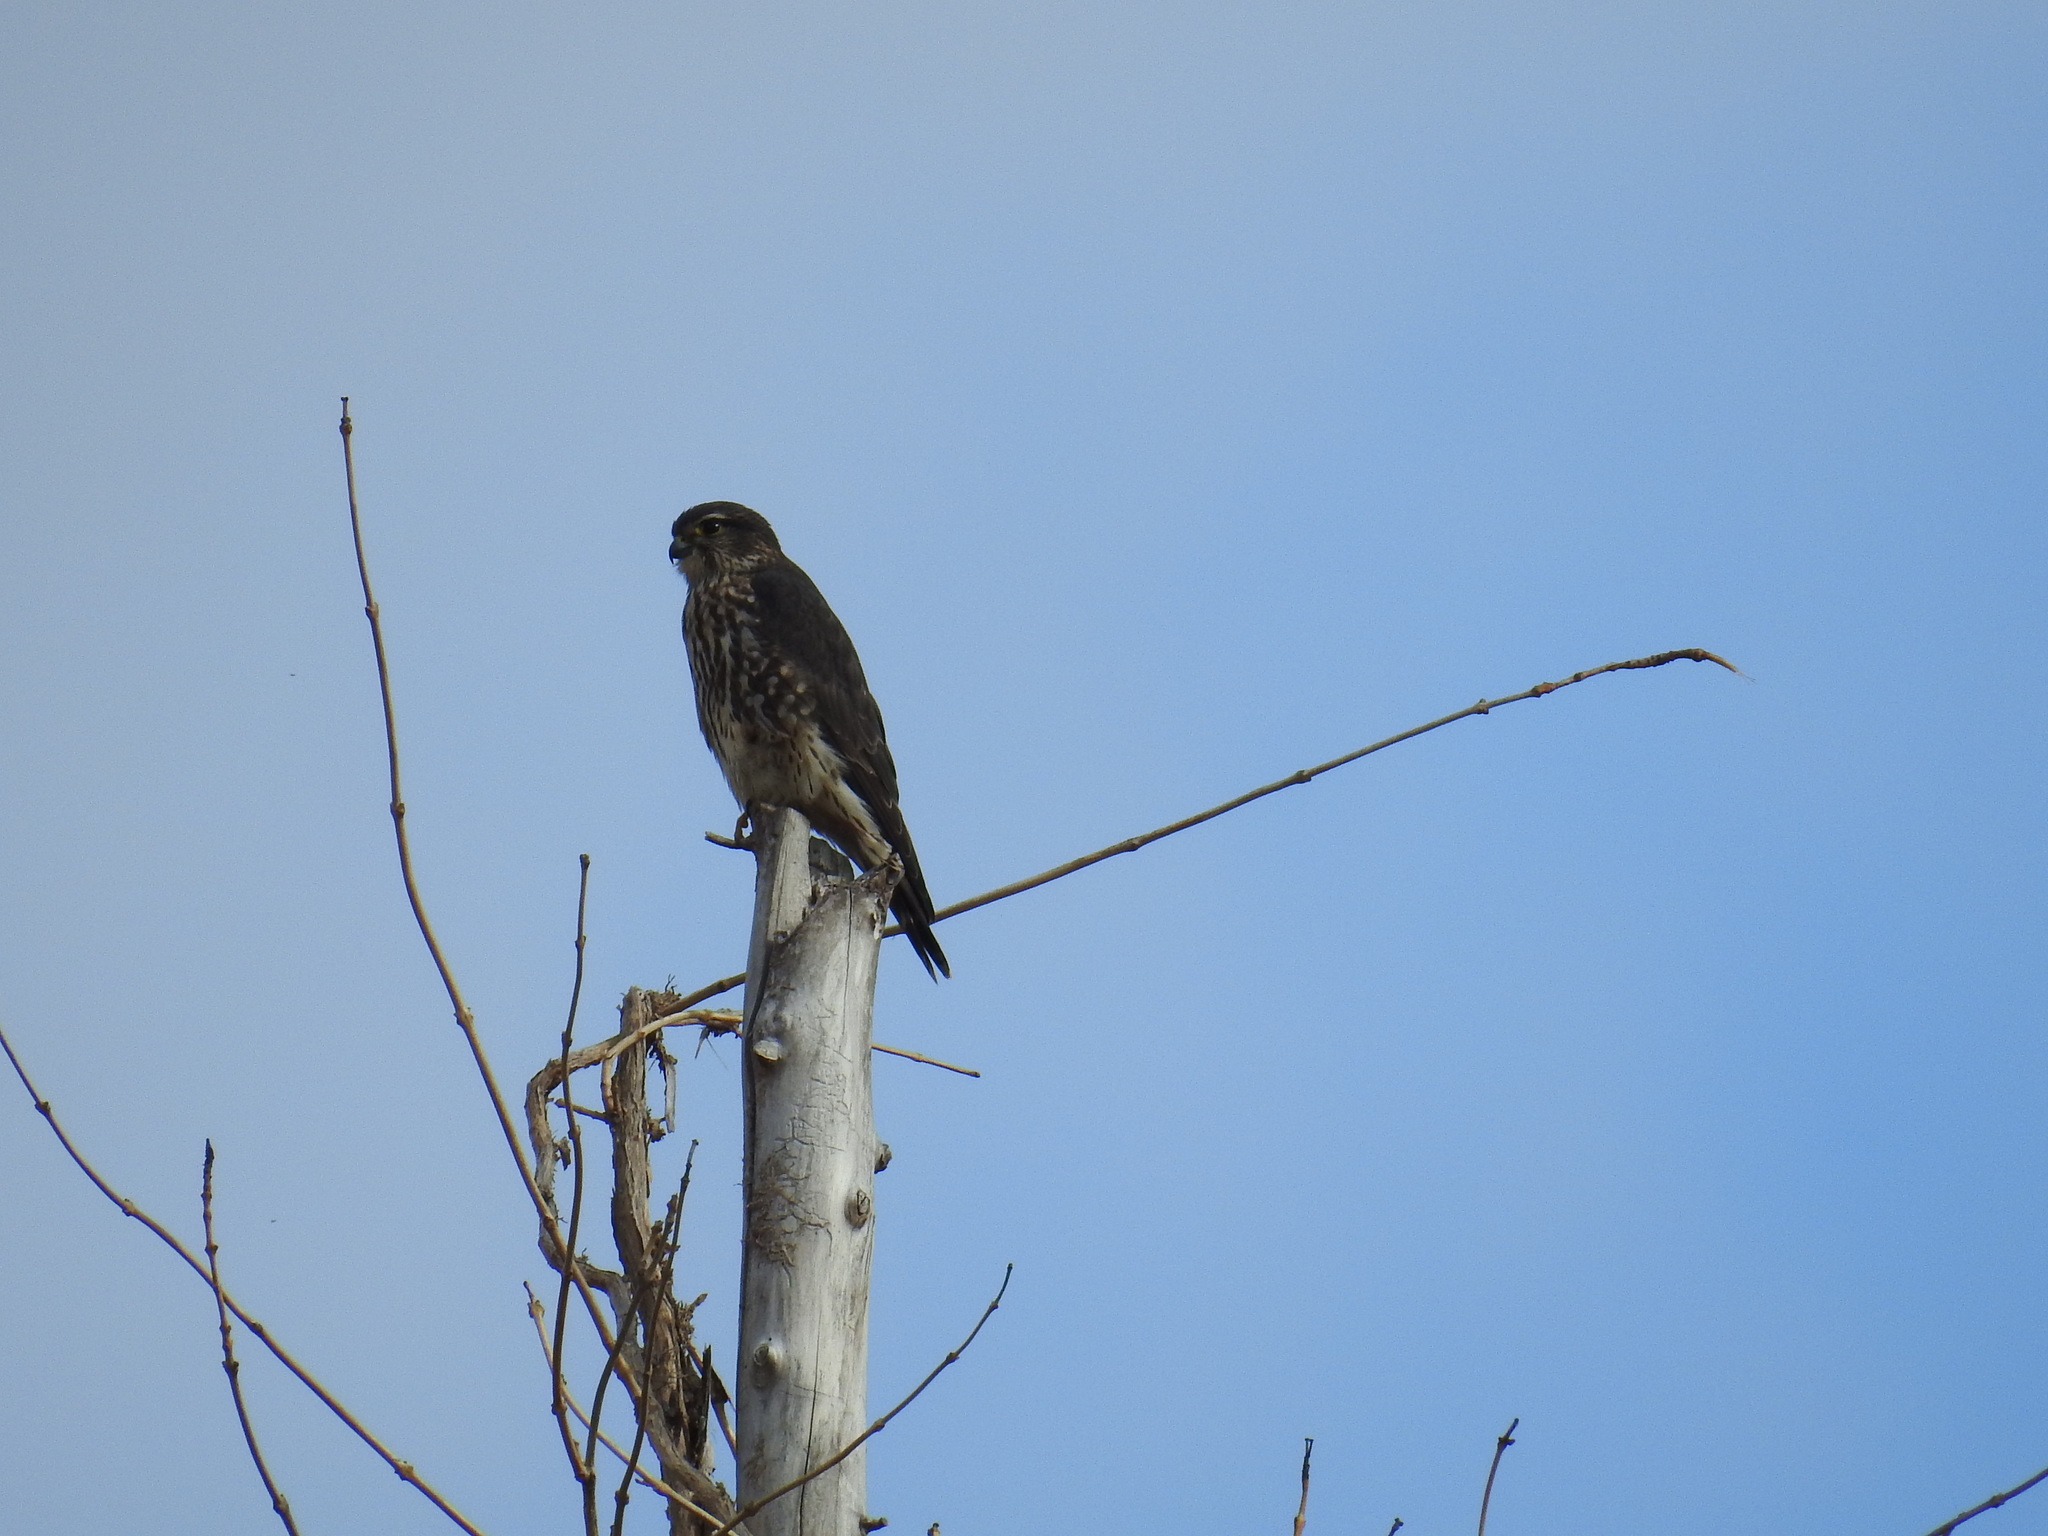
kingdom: Animalia
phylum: Chordata
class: Aves
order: Falconiformes
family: Falconidae
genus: Falco
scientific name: Falco columbarius
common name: Merlin
